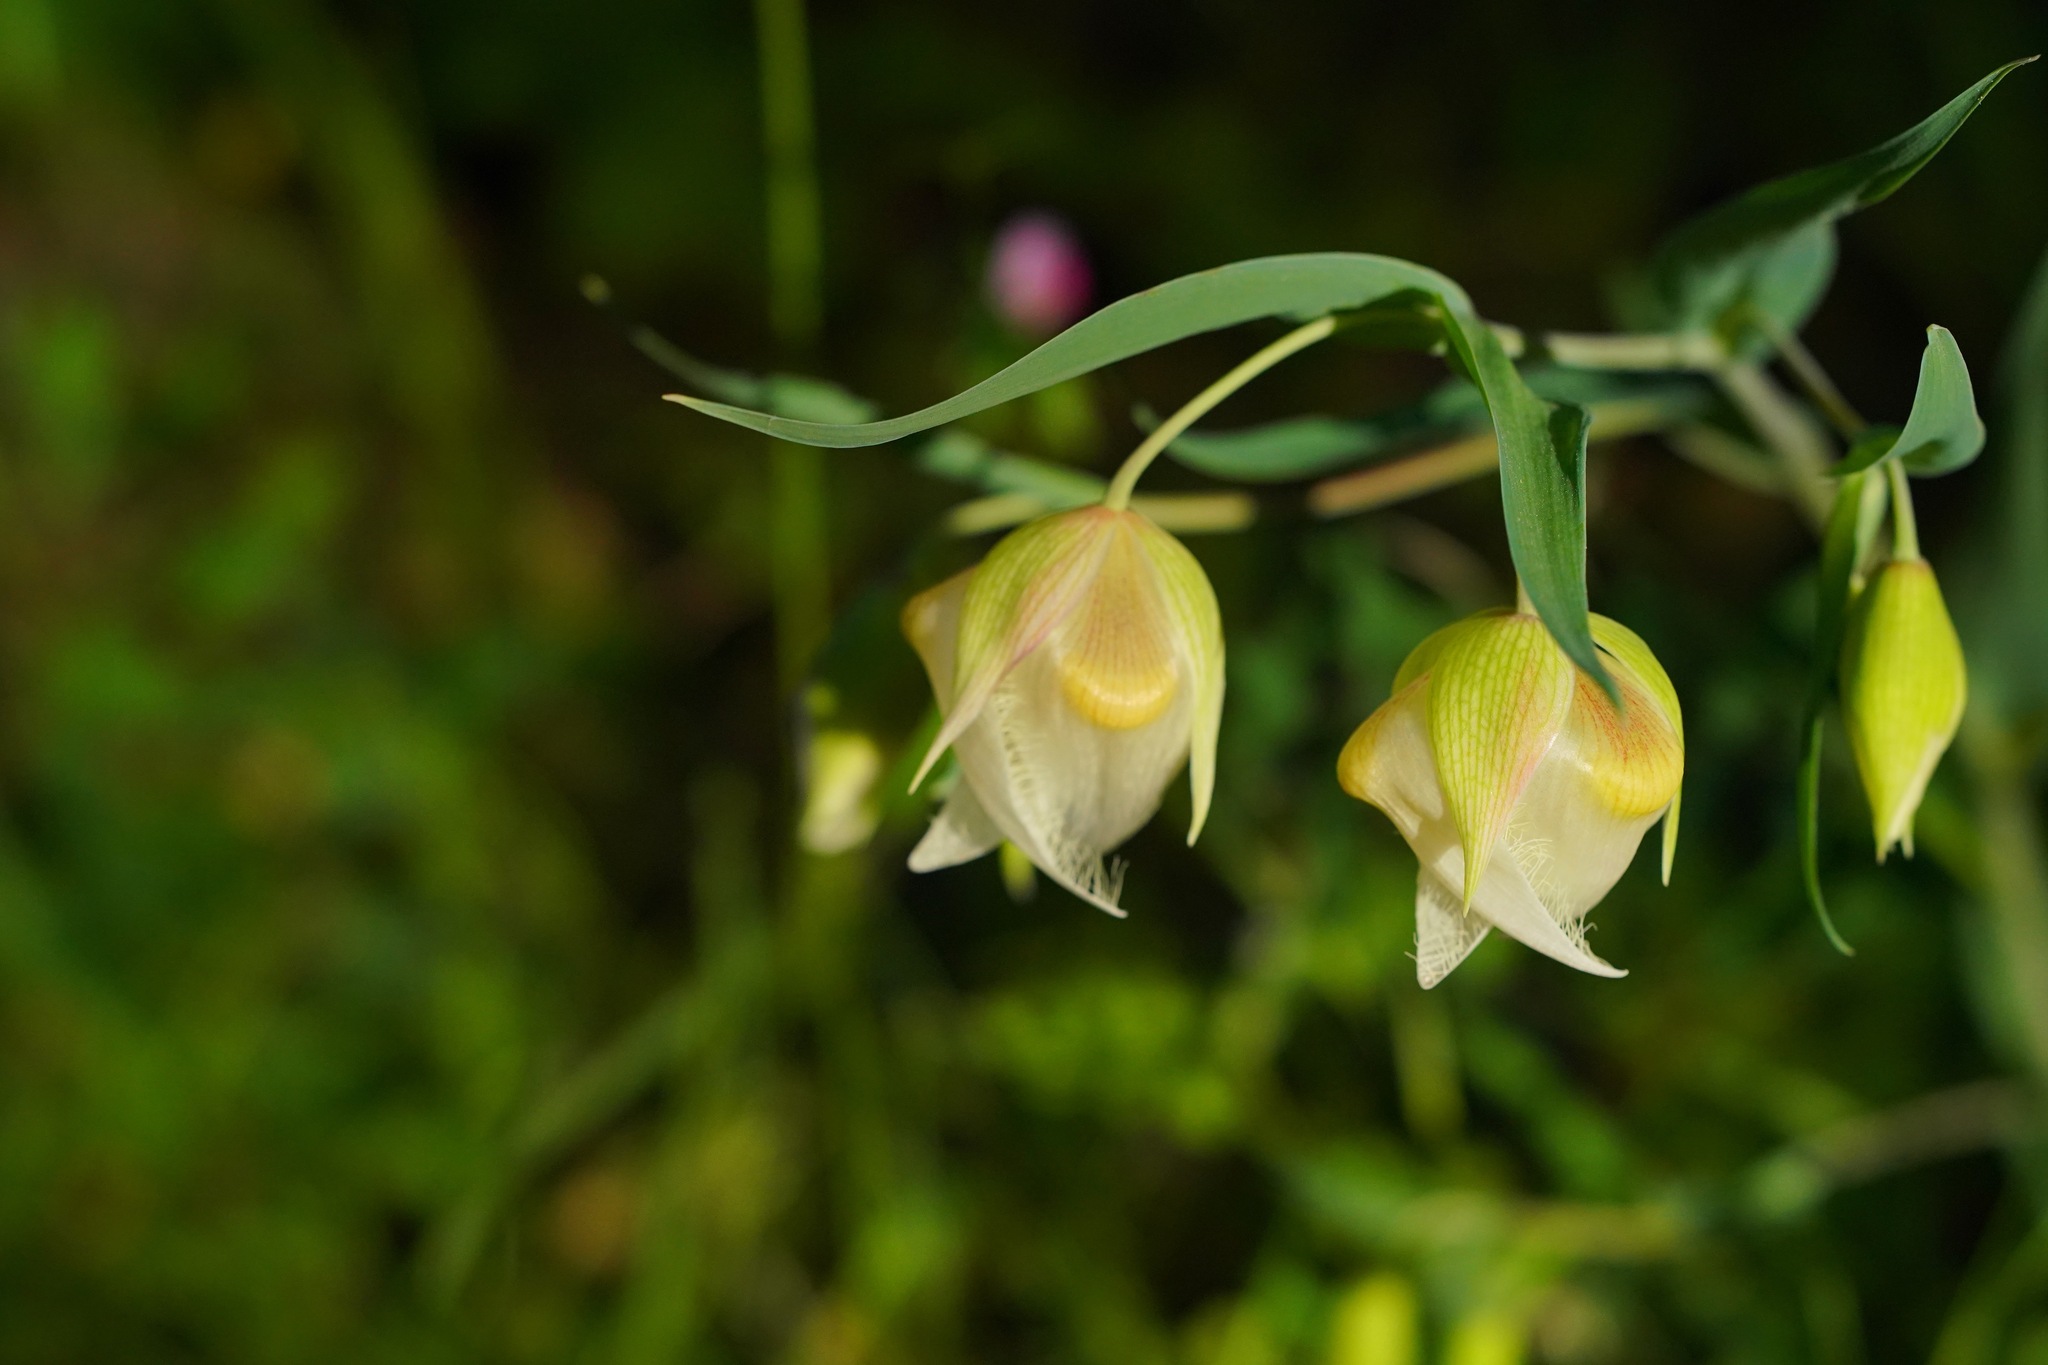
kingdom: Plantae
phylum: Tracheophyta
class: Liliopsida
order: Liliales
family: Liliaceae
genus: Calochortus
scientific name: Calochortus albus
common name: Fairy-lantern
